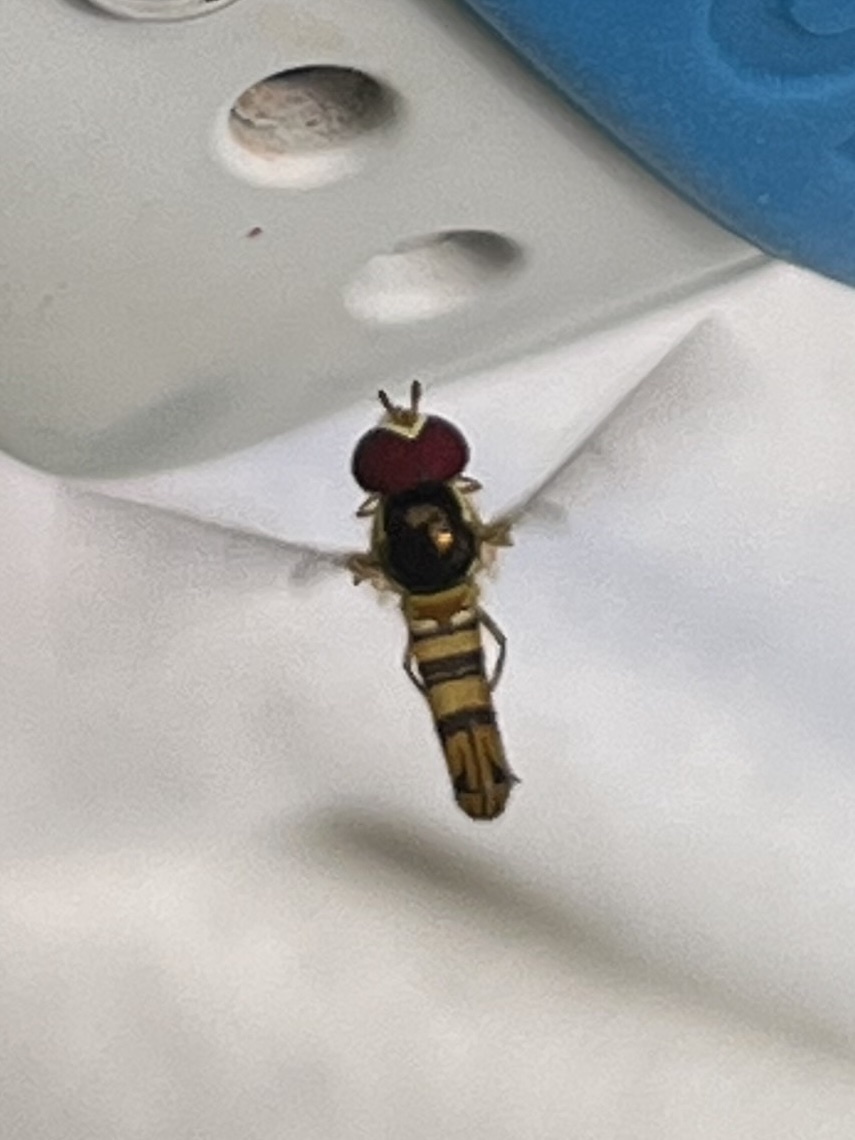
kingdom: Animalia
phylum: Arthropoda
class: Insecta
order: Diptera
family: Syrphidae
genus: Allograpta
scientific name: Allograpta obliqua
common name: Common oblique syrphid
